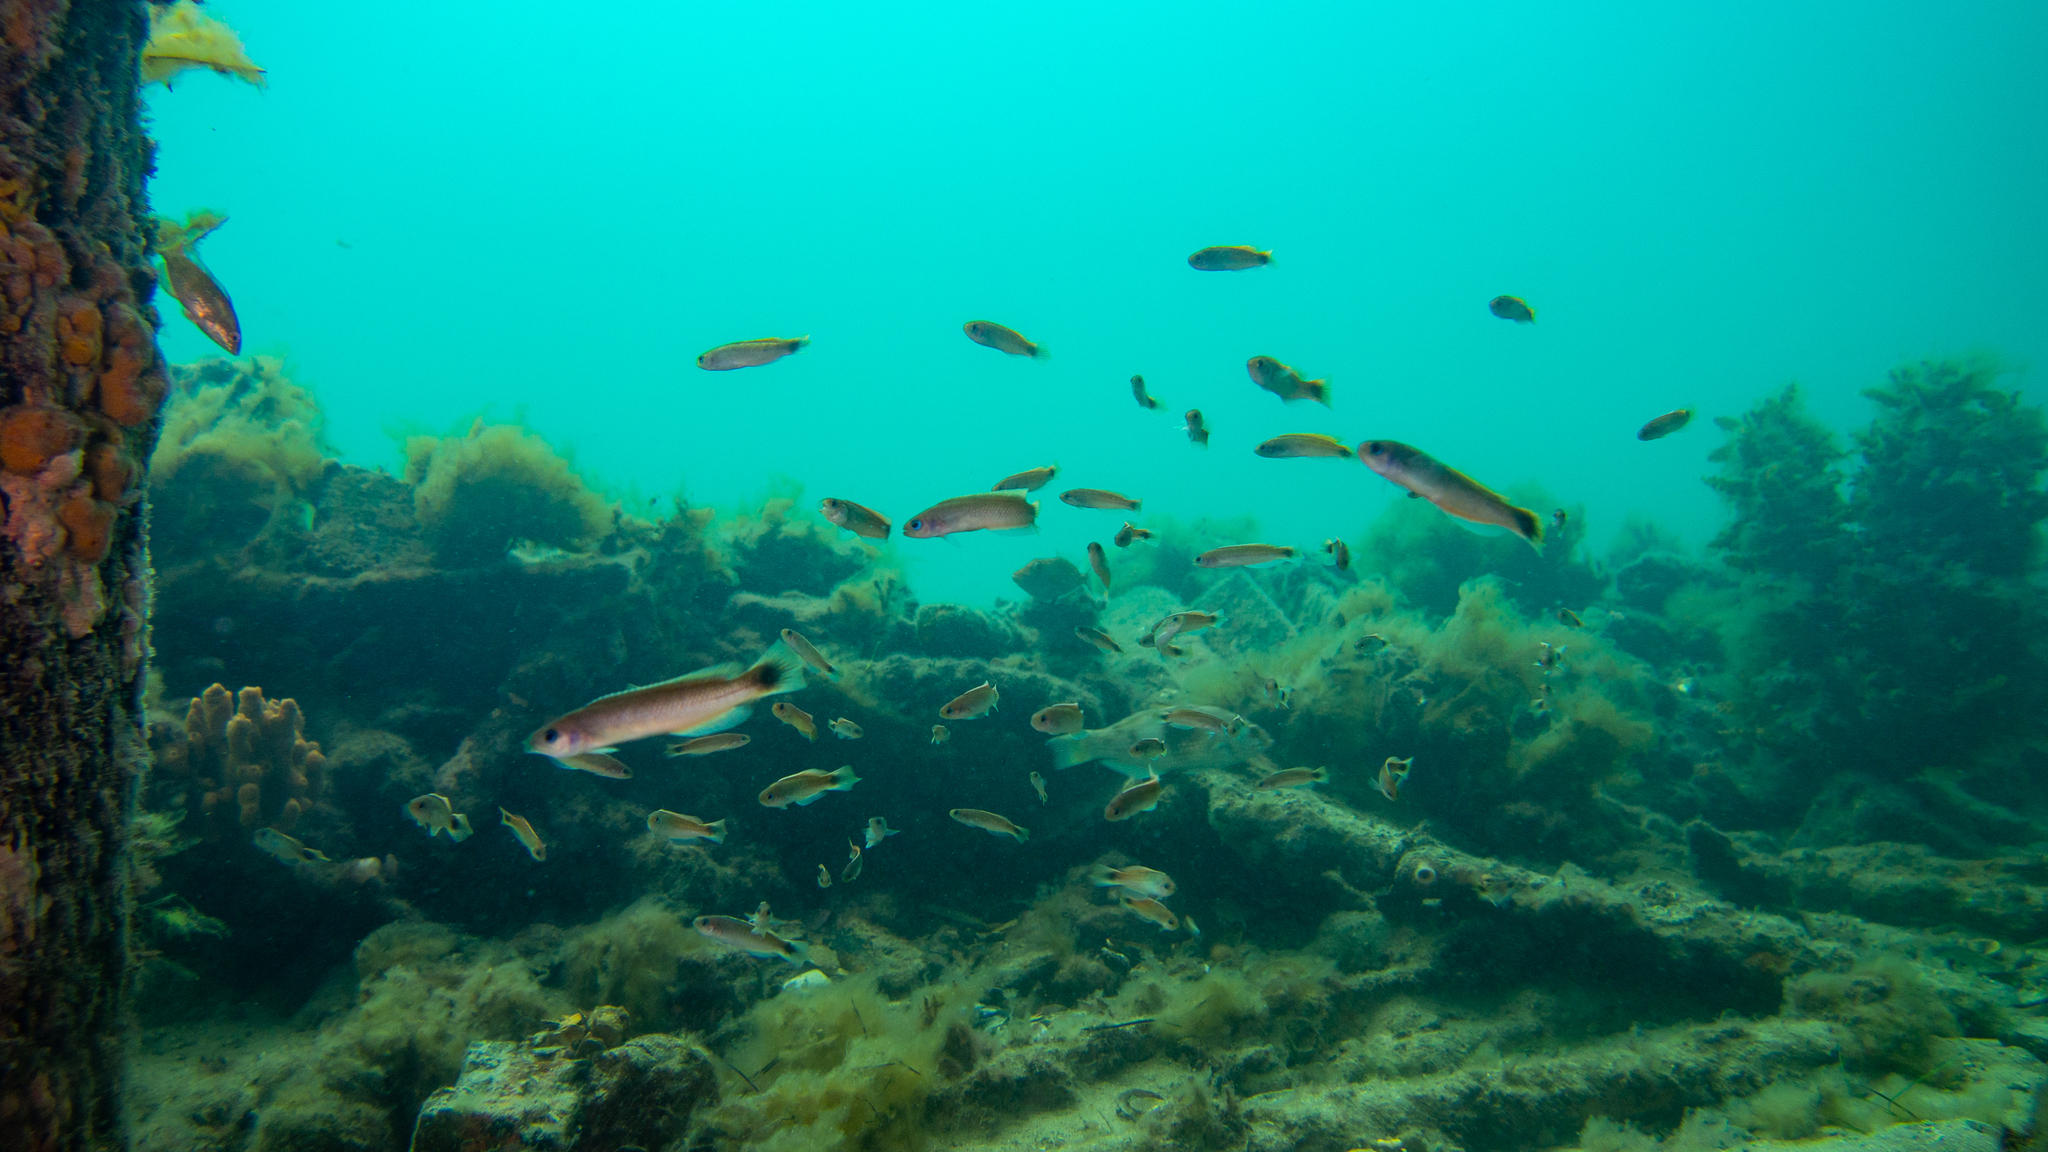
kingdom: Animalia
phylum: Chordata
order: Perciformes
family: Plesiopidae
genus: Trachinops
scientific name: Trachinops caudimaculatus
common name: Blotched-tailed trachinops
